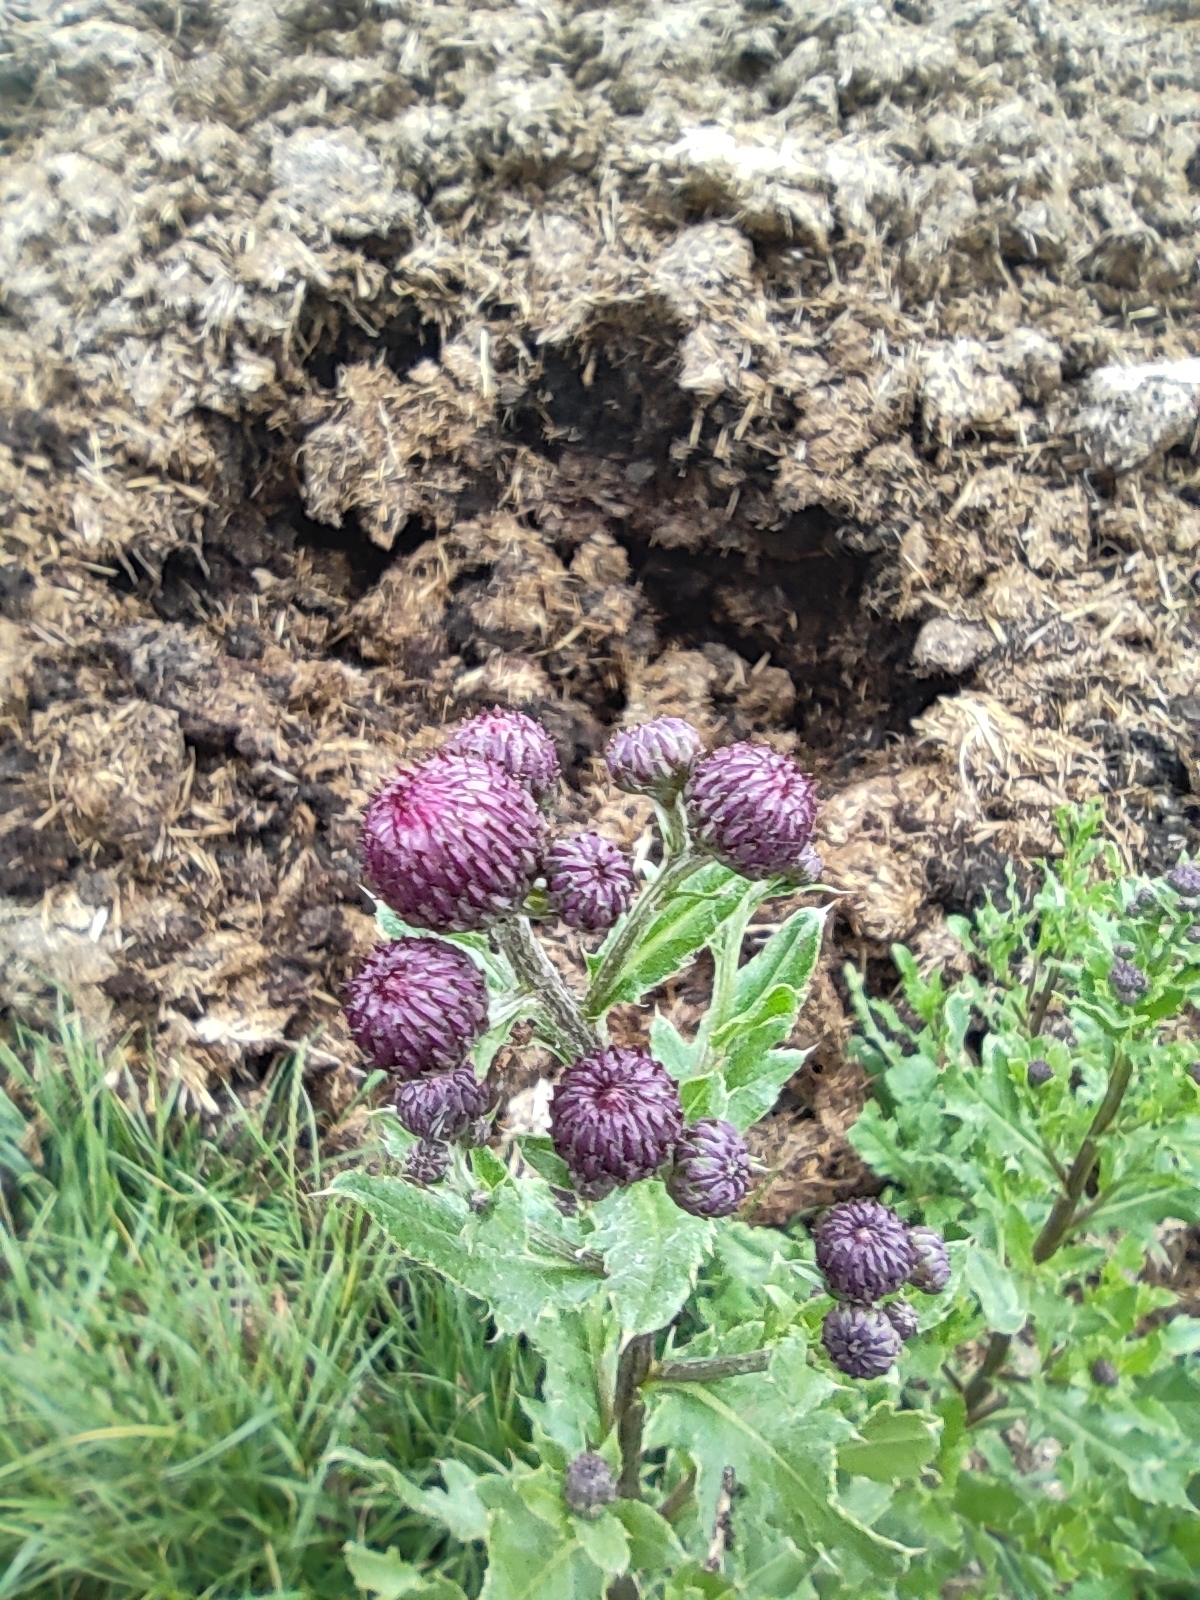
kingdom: Plantae
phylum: Tracheophyta
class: Magnoliopsida
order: Asterales
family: Asteraceae
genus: Cirsium
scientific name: Cirsium arvense
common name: Creeping thistle
